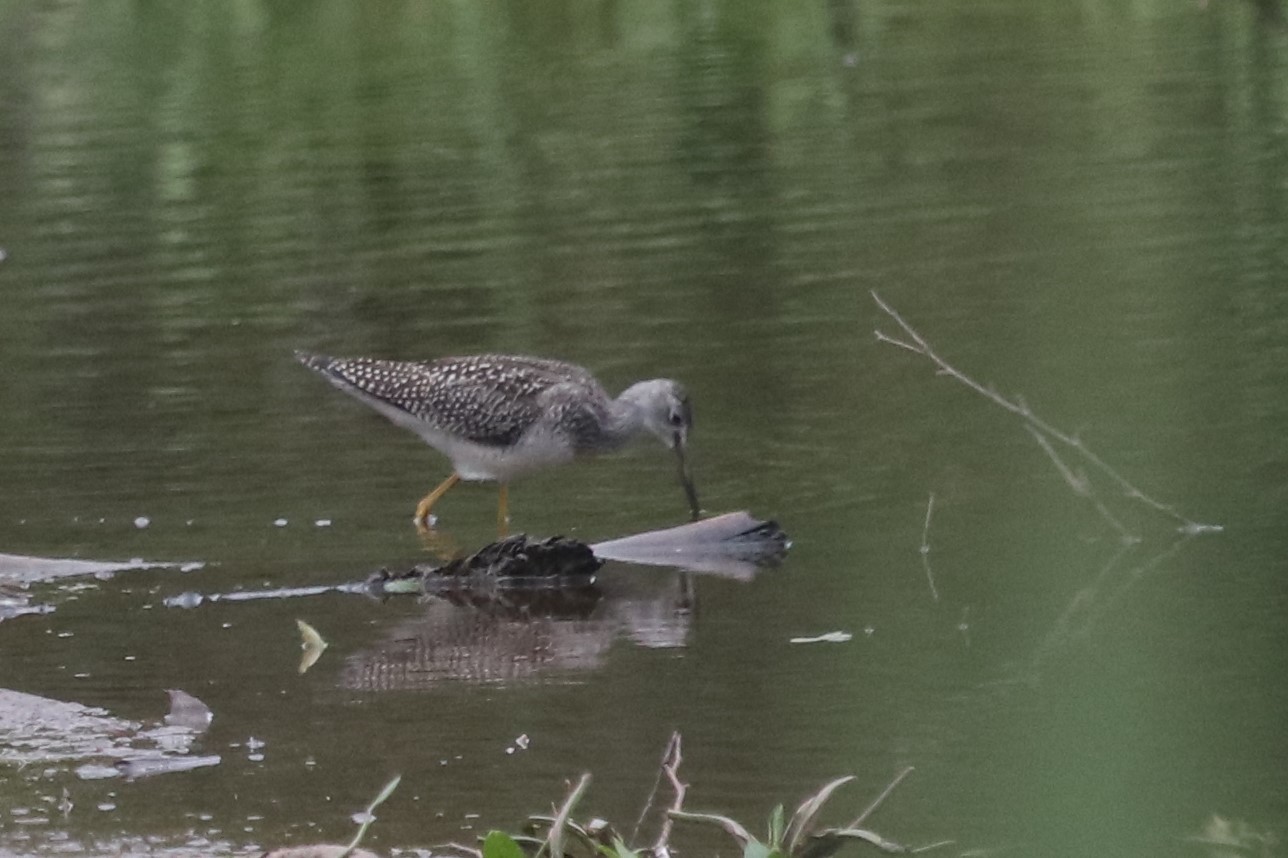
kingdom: Animalia
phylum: Chordata
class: Aves
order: Charadriiformes
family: Scolopacidae
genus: Tringa
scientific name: Tringa melanoleuca
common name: Greater yellowlegs
